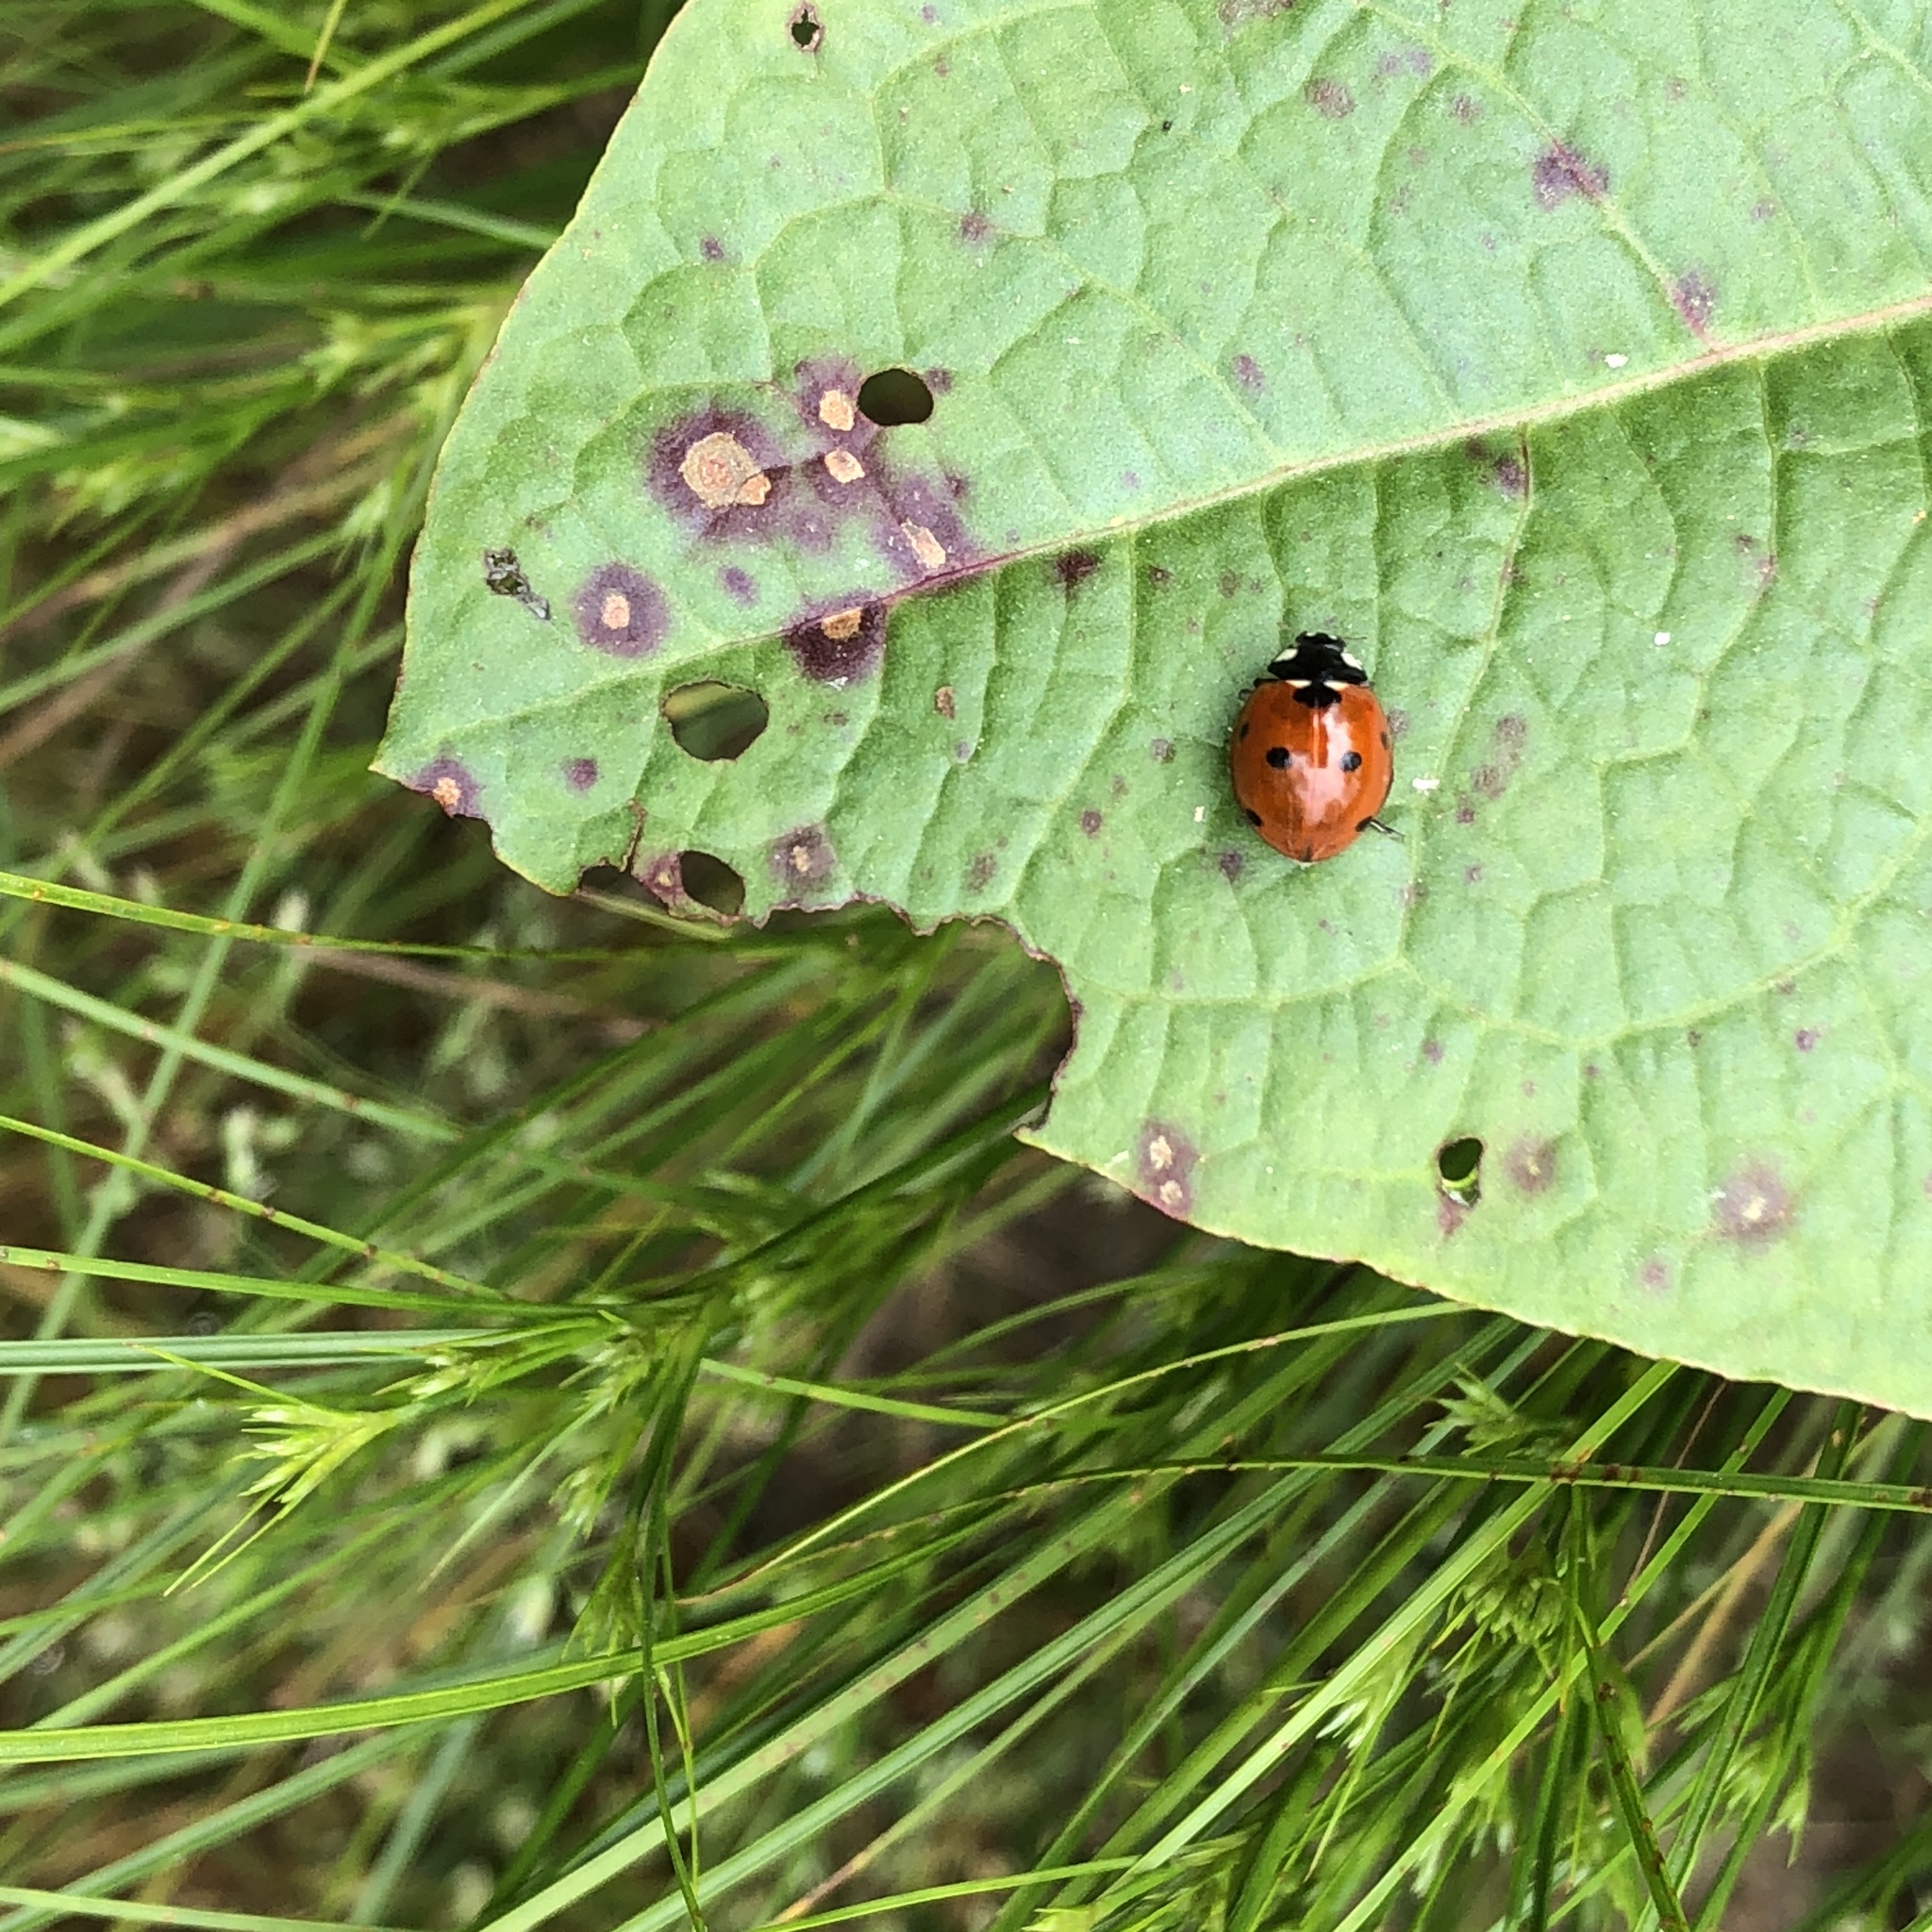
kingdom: Animalia
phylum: Arthropoda
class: Insecta
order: Coleoptera
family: Coccinellidae
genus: Coccinella
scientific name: Coccinella septempunctata
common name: Sevenspotted lady beetle
